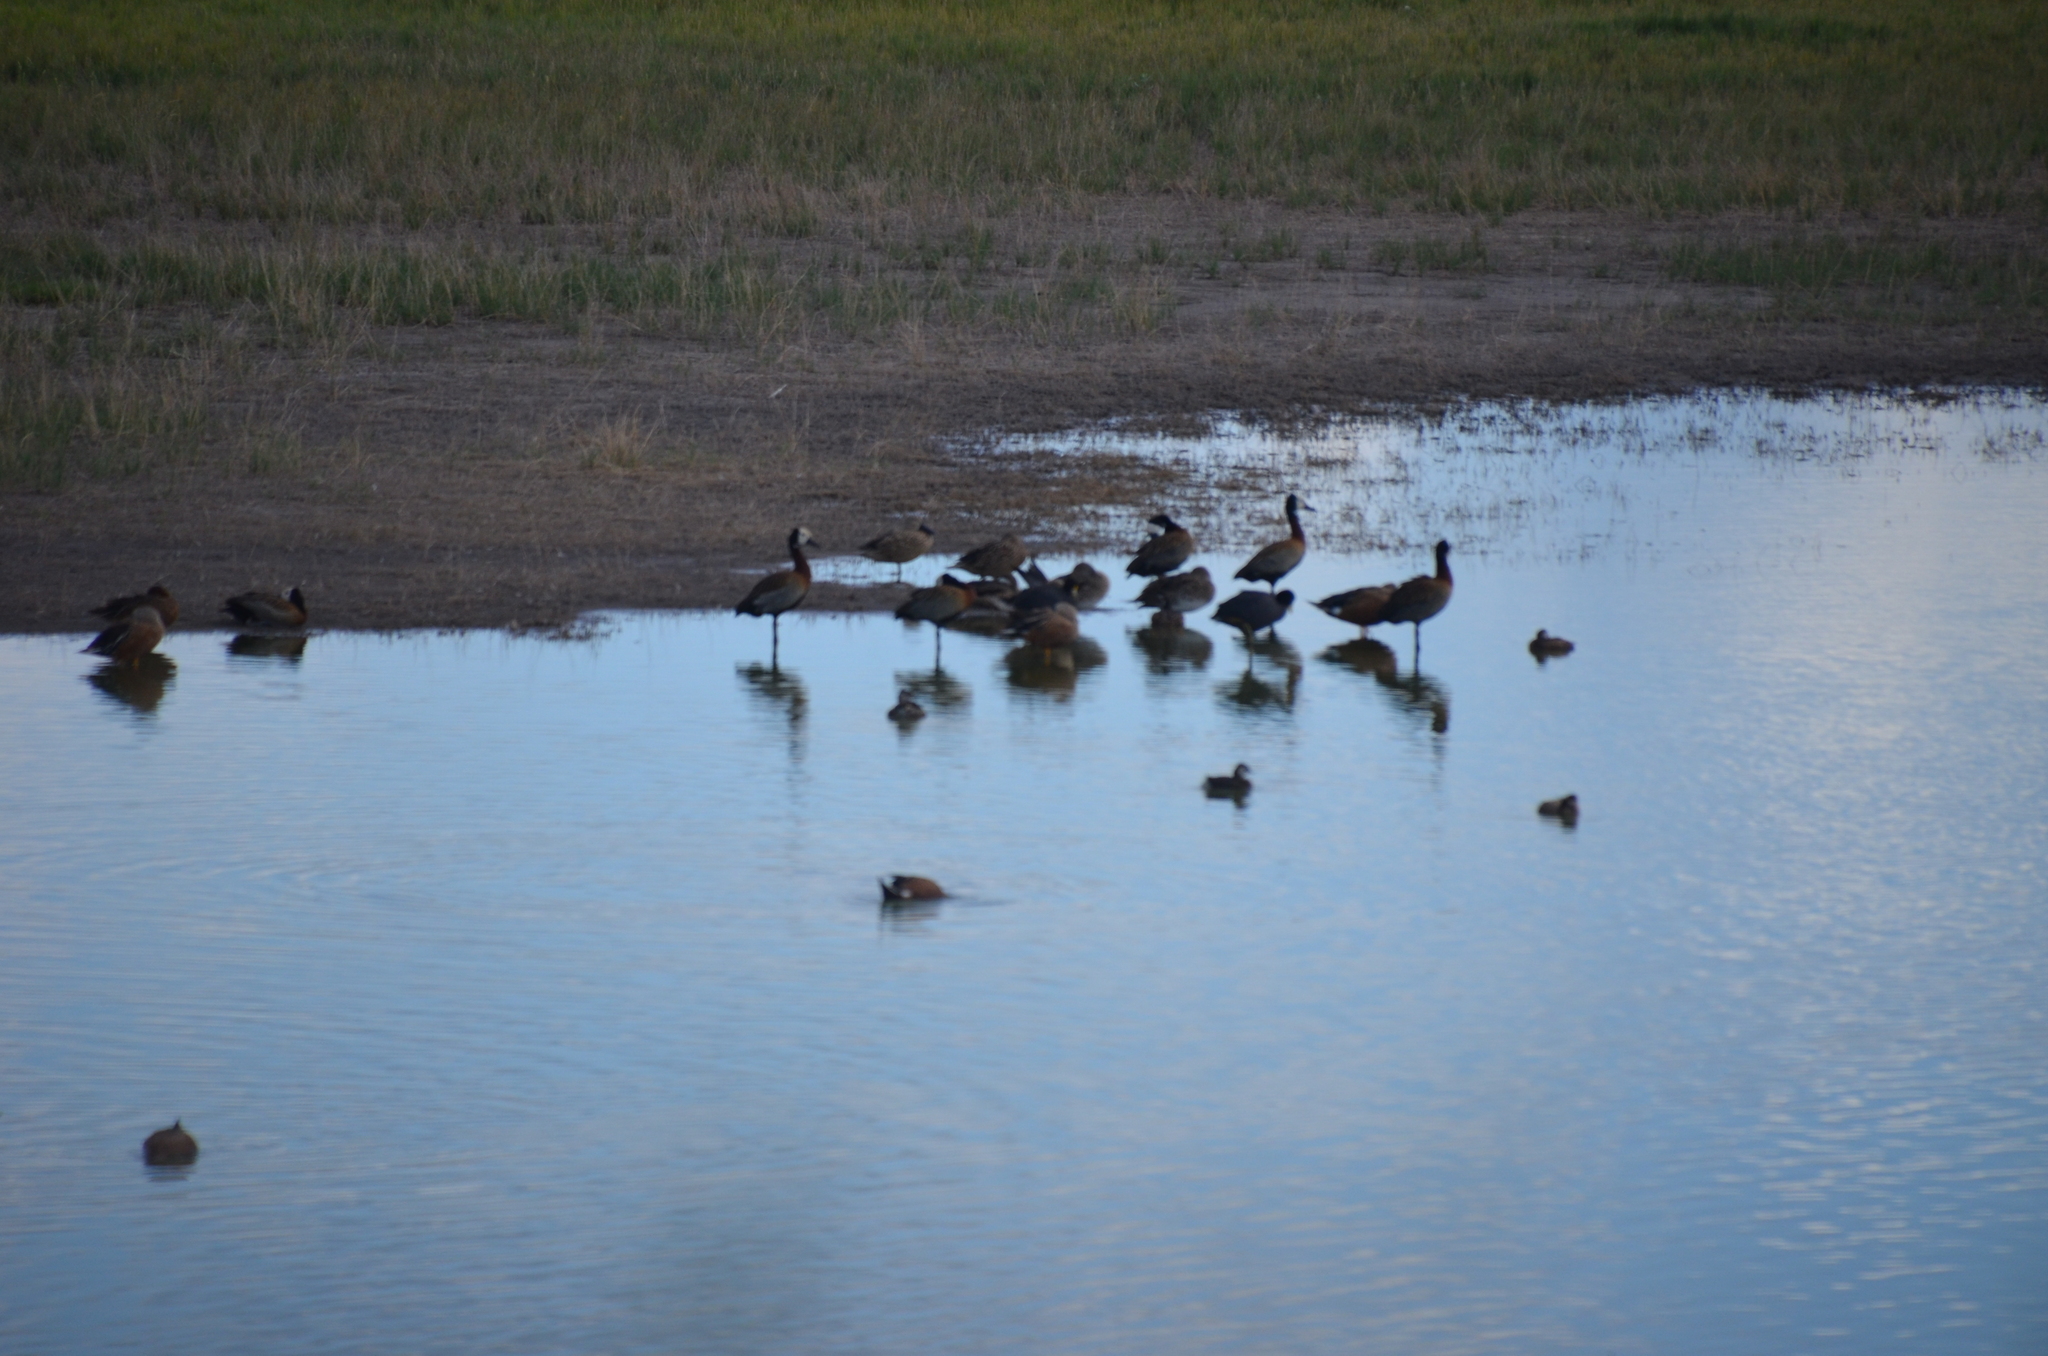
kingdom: Animalia
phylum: Chordata
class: Aves
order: Anseriformes
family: Anatidae
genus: Dendrocygna
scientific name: Dendrocygna viduata
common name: White-faced whistling duck
